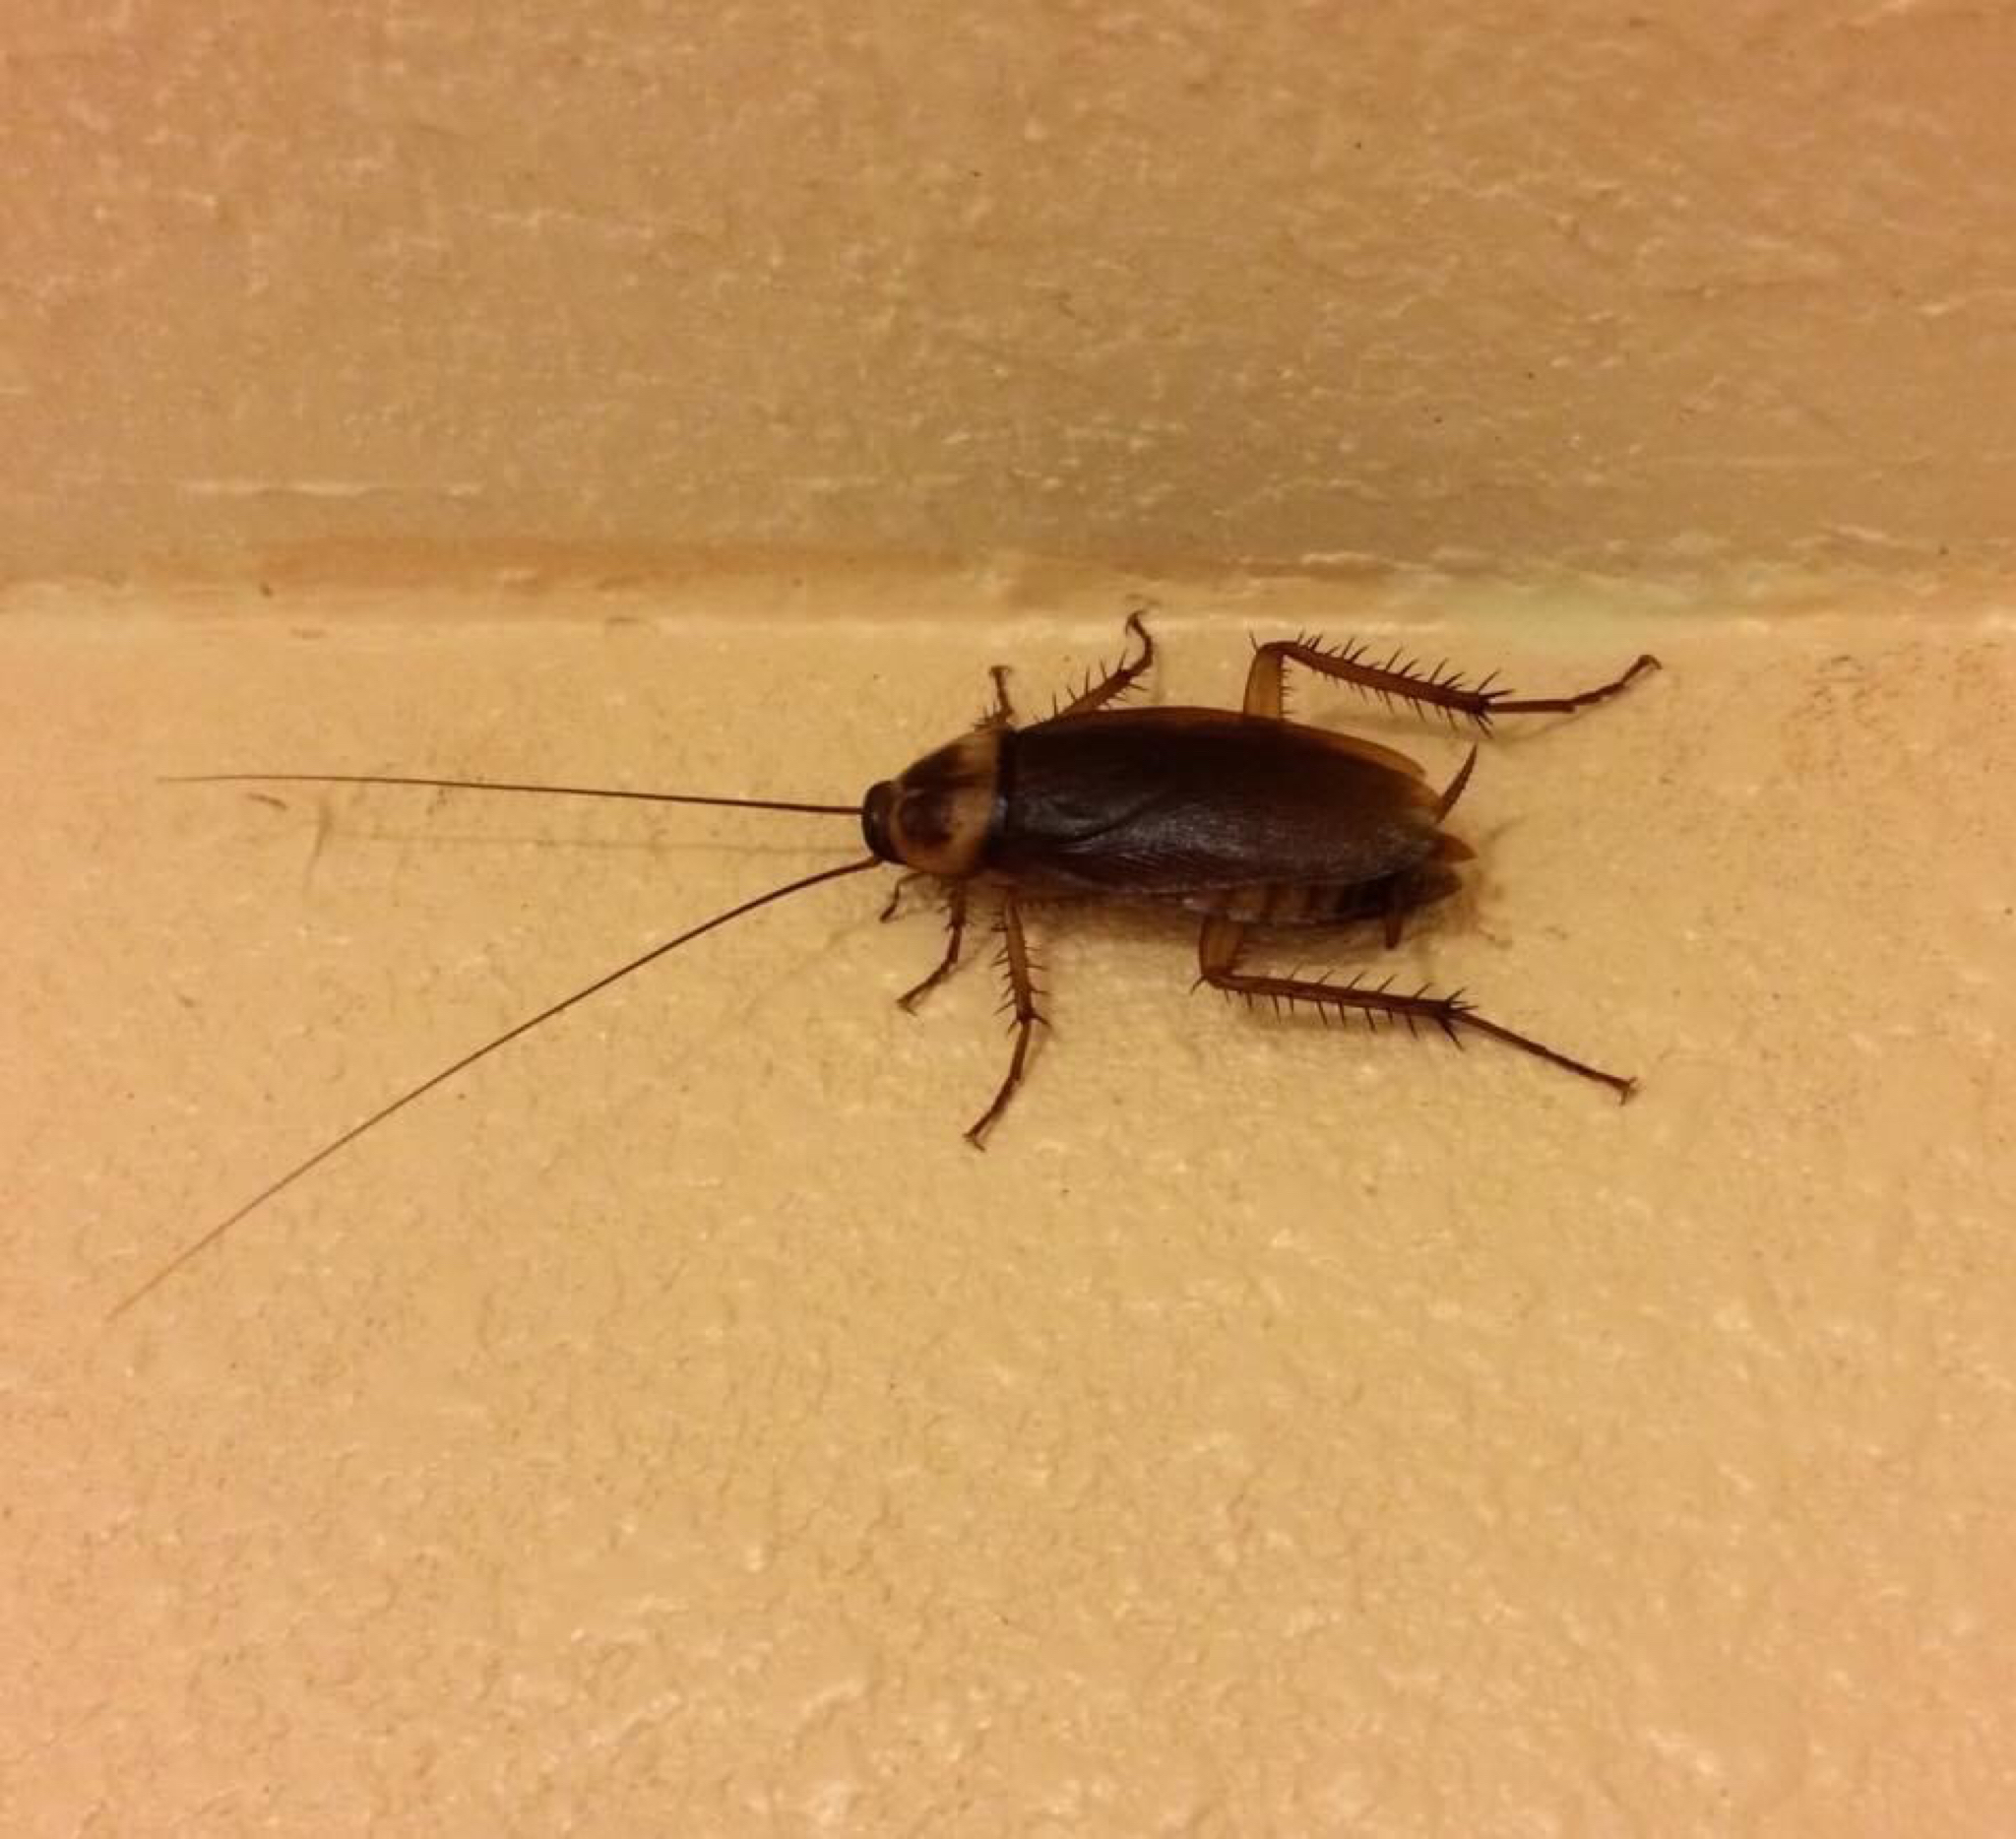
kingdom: Animalia
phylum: Arthropoda
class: Insecta
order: Blattodea
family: Blattidae
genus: Periplaneta
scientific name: Periplaneta americana
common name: American cockroach
